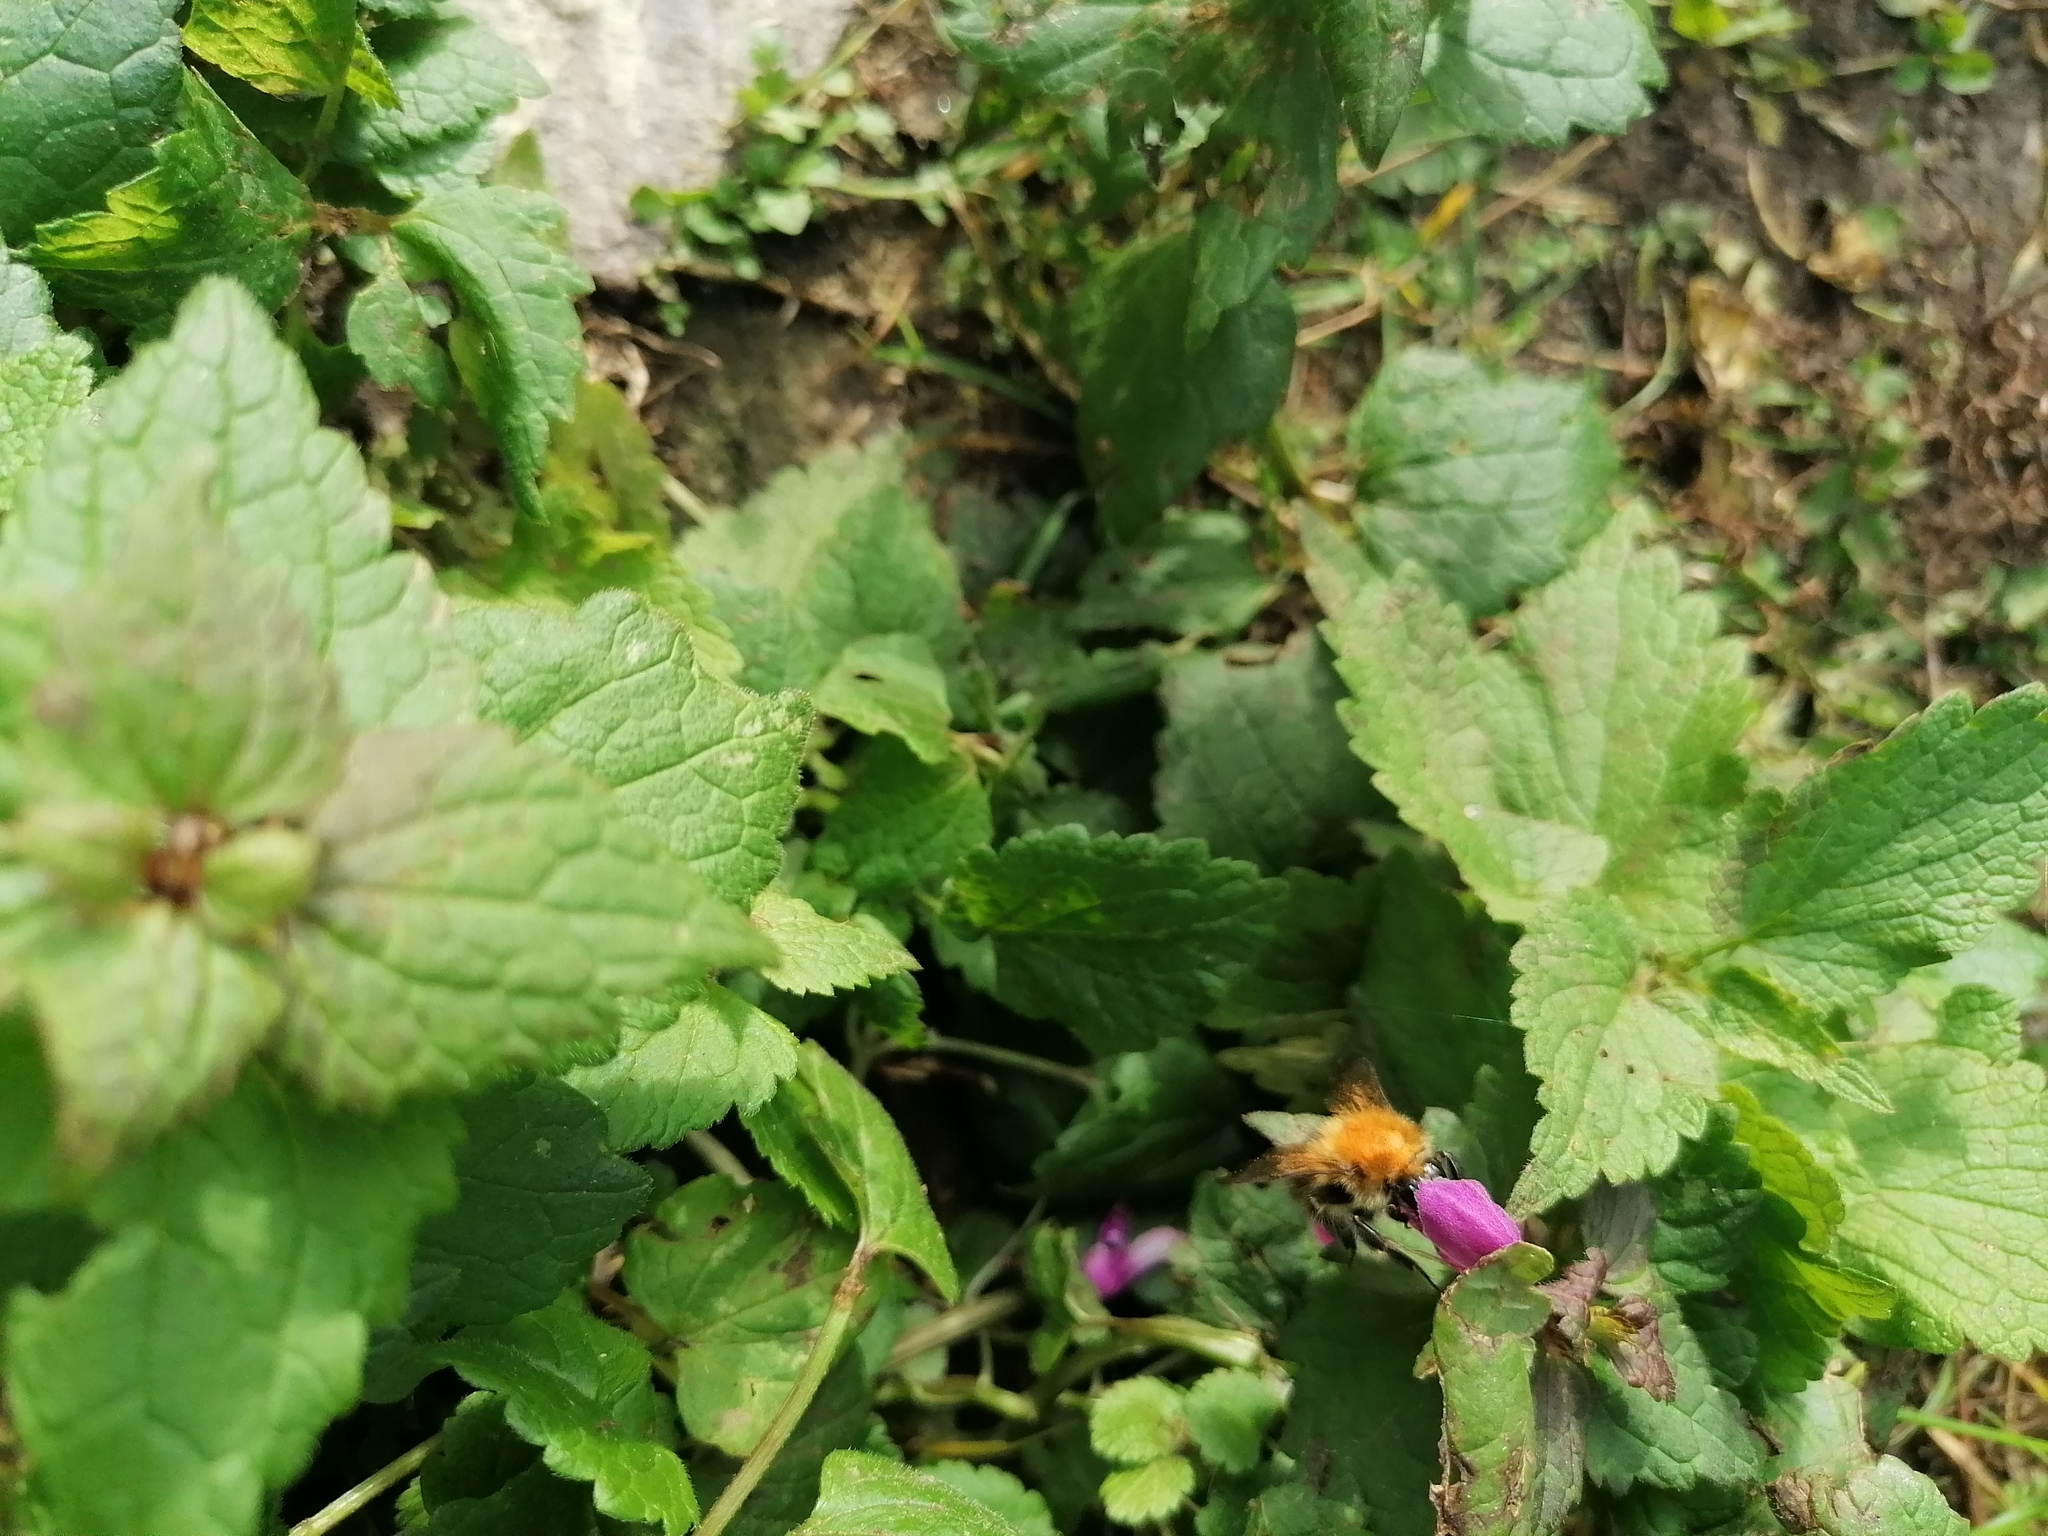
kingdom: Animalia
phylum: Arthropoda
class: Insecta
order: Hymenoptera
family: Apidae
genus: Bombus
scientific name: Bombus pascuorum
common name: Common carder bee
